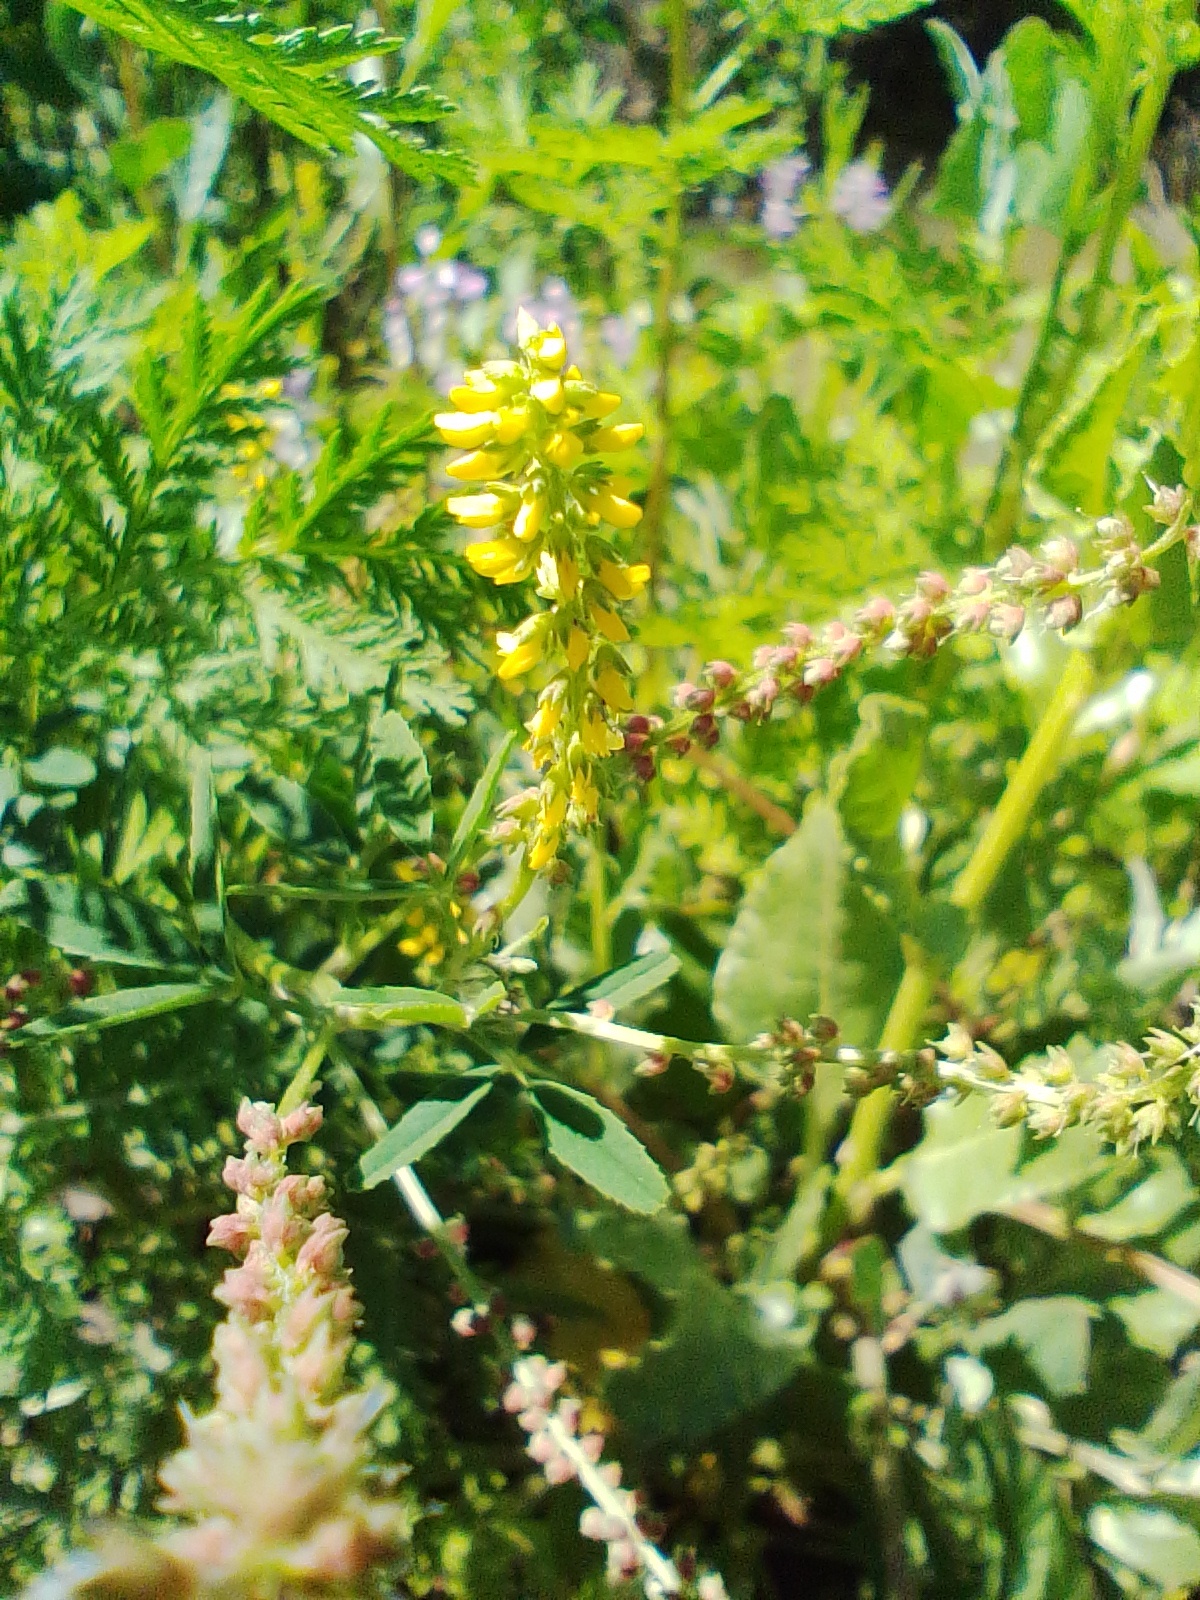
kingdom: Plantae
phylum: Tracheophyta
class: Magnoliopsida
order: Fabales
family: Fabaceae
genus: Melilotus
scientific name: Melilotus indicus
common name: Small melilot
